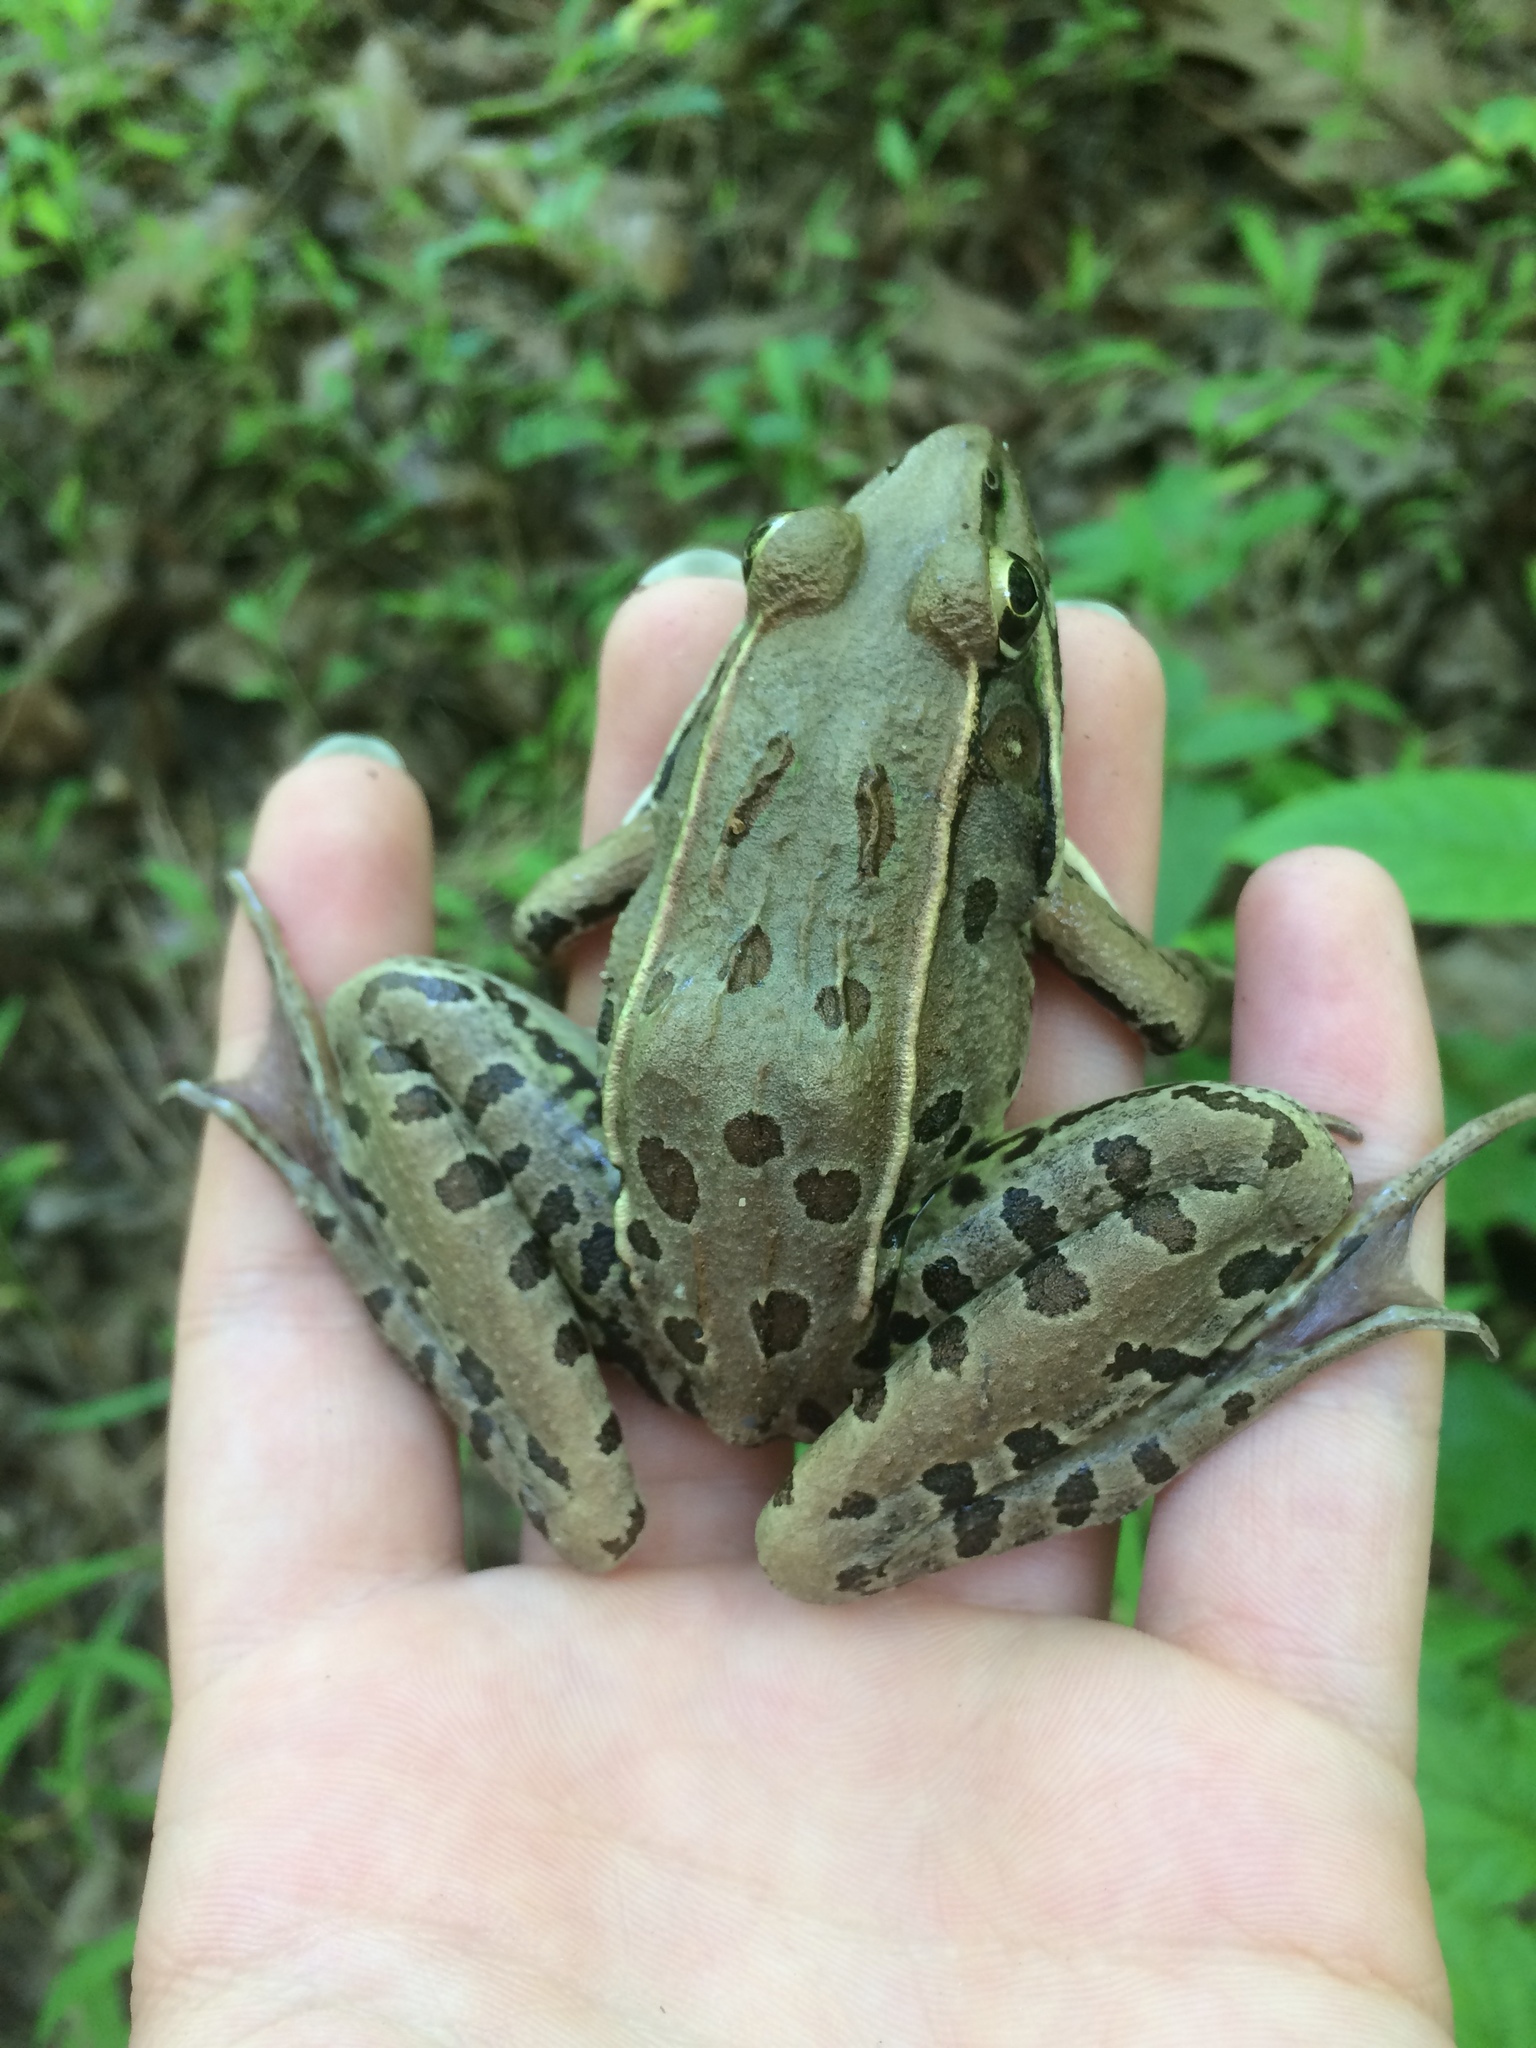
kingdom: Animalia
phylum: Chordata
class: Amphibia
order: Anura
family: Ranidae
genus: Lithobates
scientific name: Lithobates sphenocephalus
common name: Southern leopard frog
